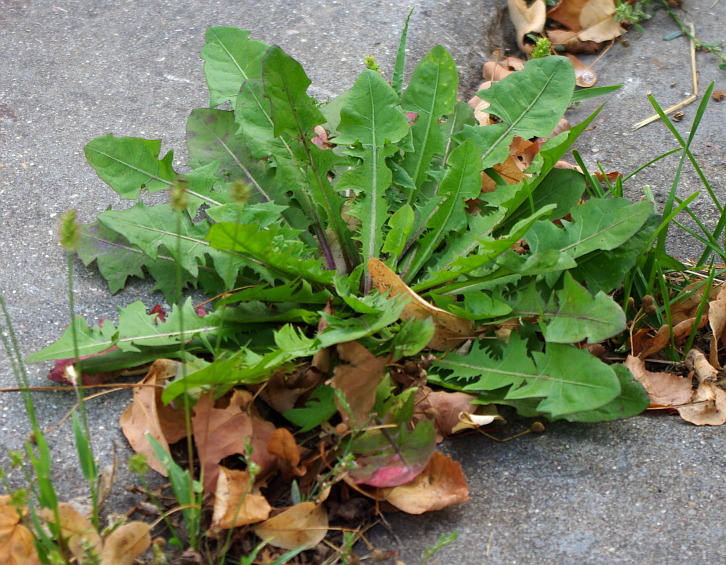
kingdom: Plantae
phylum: Tracheophyta
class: Magnoliopsida
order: Asterales
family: Asteraceae
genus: Taraxacum
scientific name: Taraxacum officinale
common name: Common dandelion
